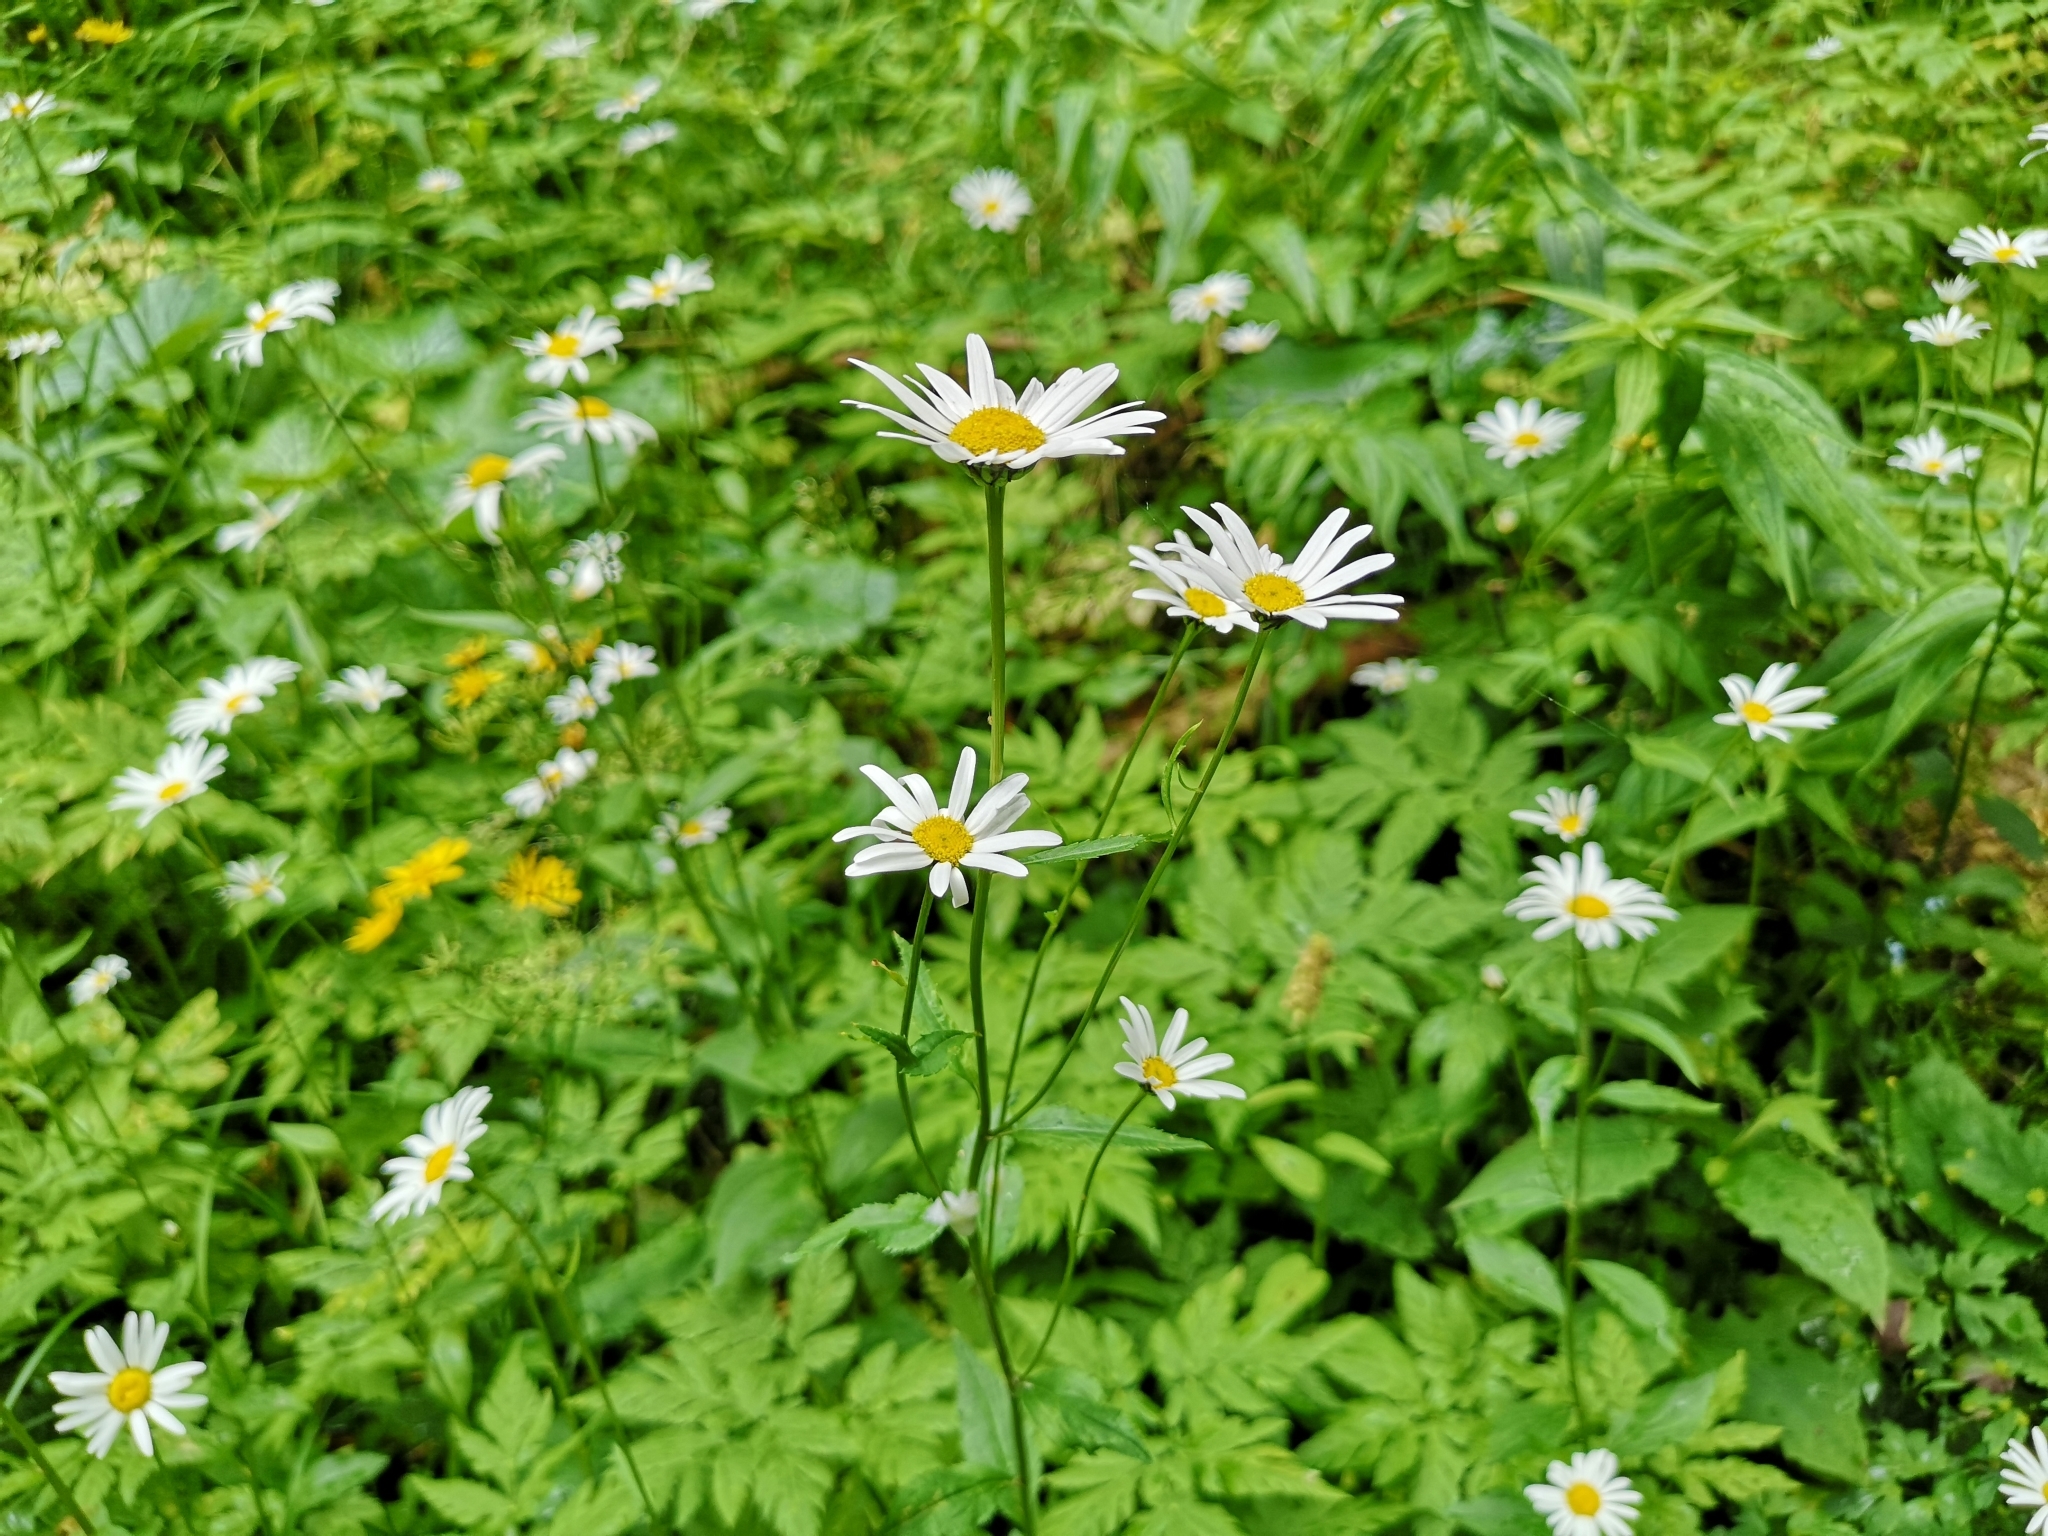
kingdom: Plantae
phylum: Tracheophyta
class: Magnoliopsida
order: Asterales
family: Asteraceae
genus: Leucanthemum
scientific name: Leucanthemum rotundifolium
